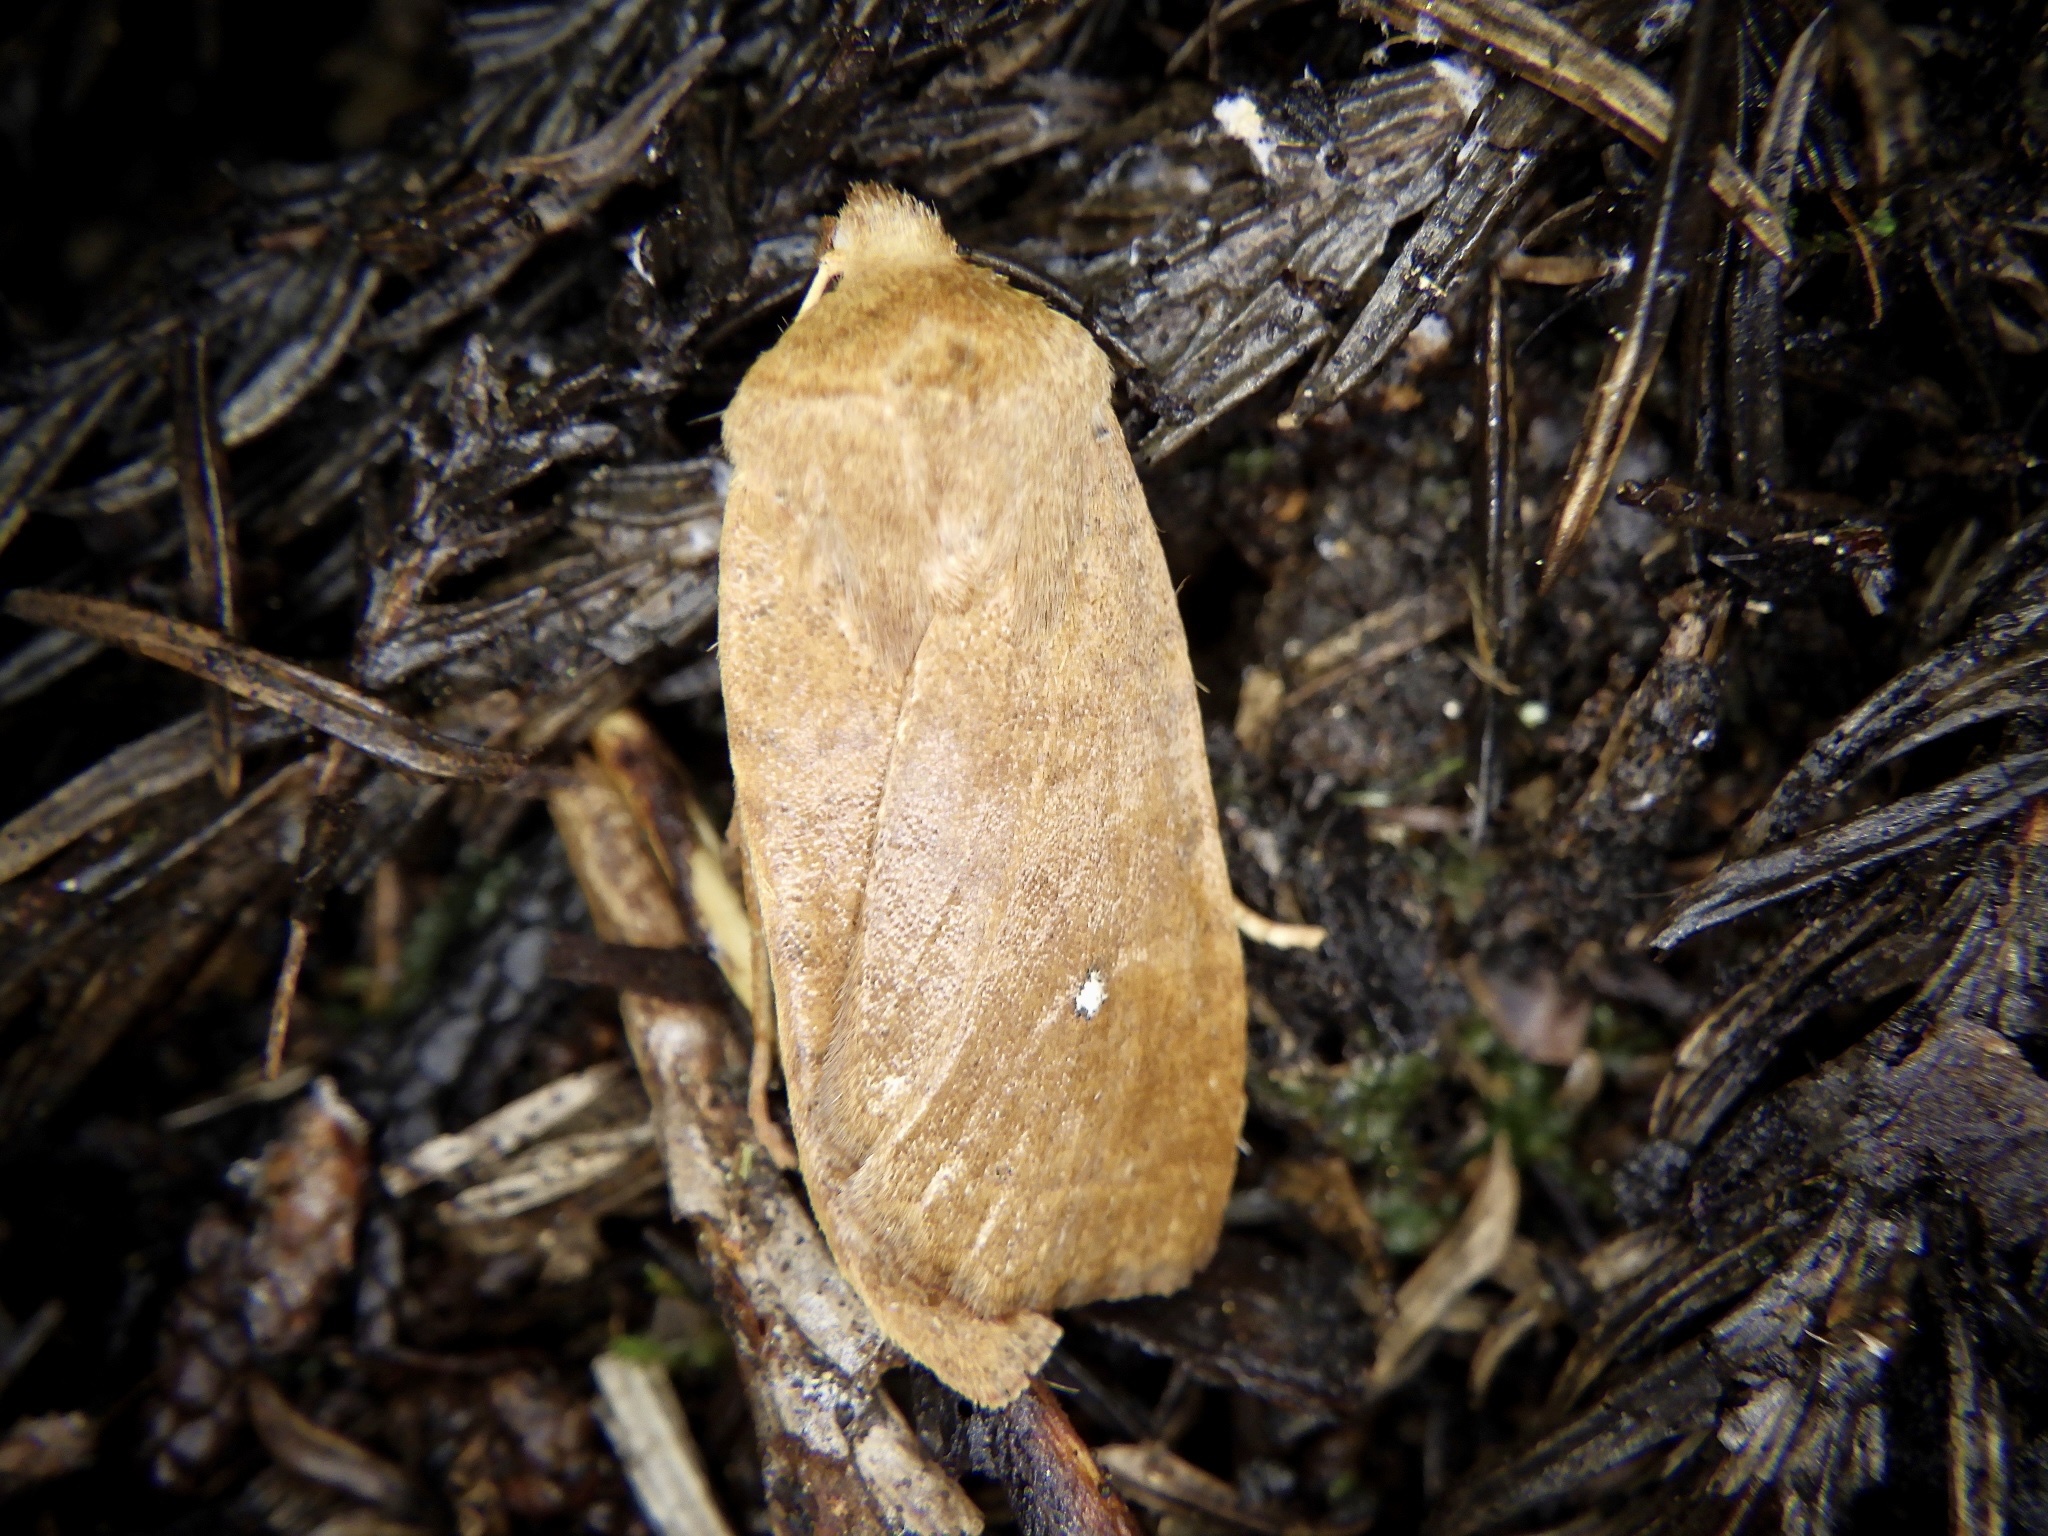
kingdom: Animalia
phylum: Arthropoda
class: Insecta
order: Lepidoptera
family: Noctuidae
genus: Conistra
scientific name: Conistra albipuncta
